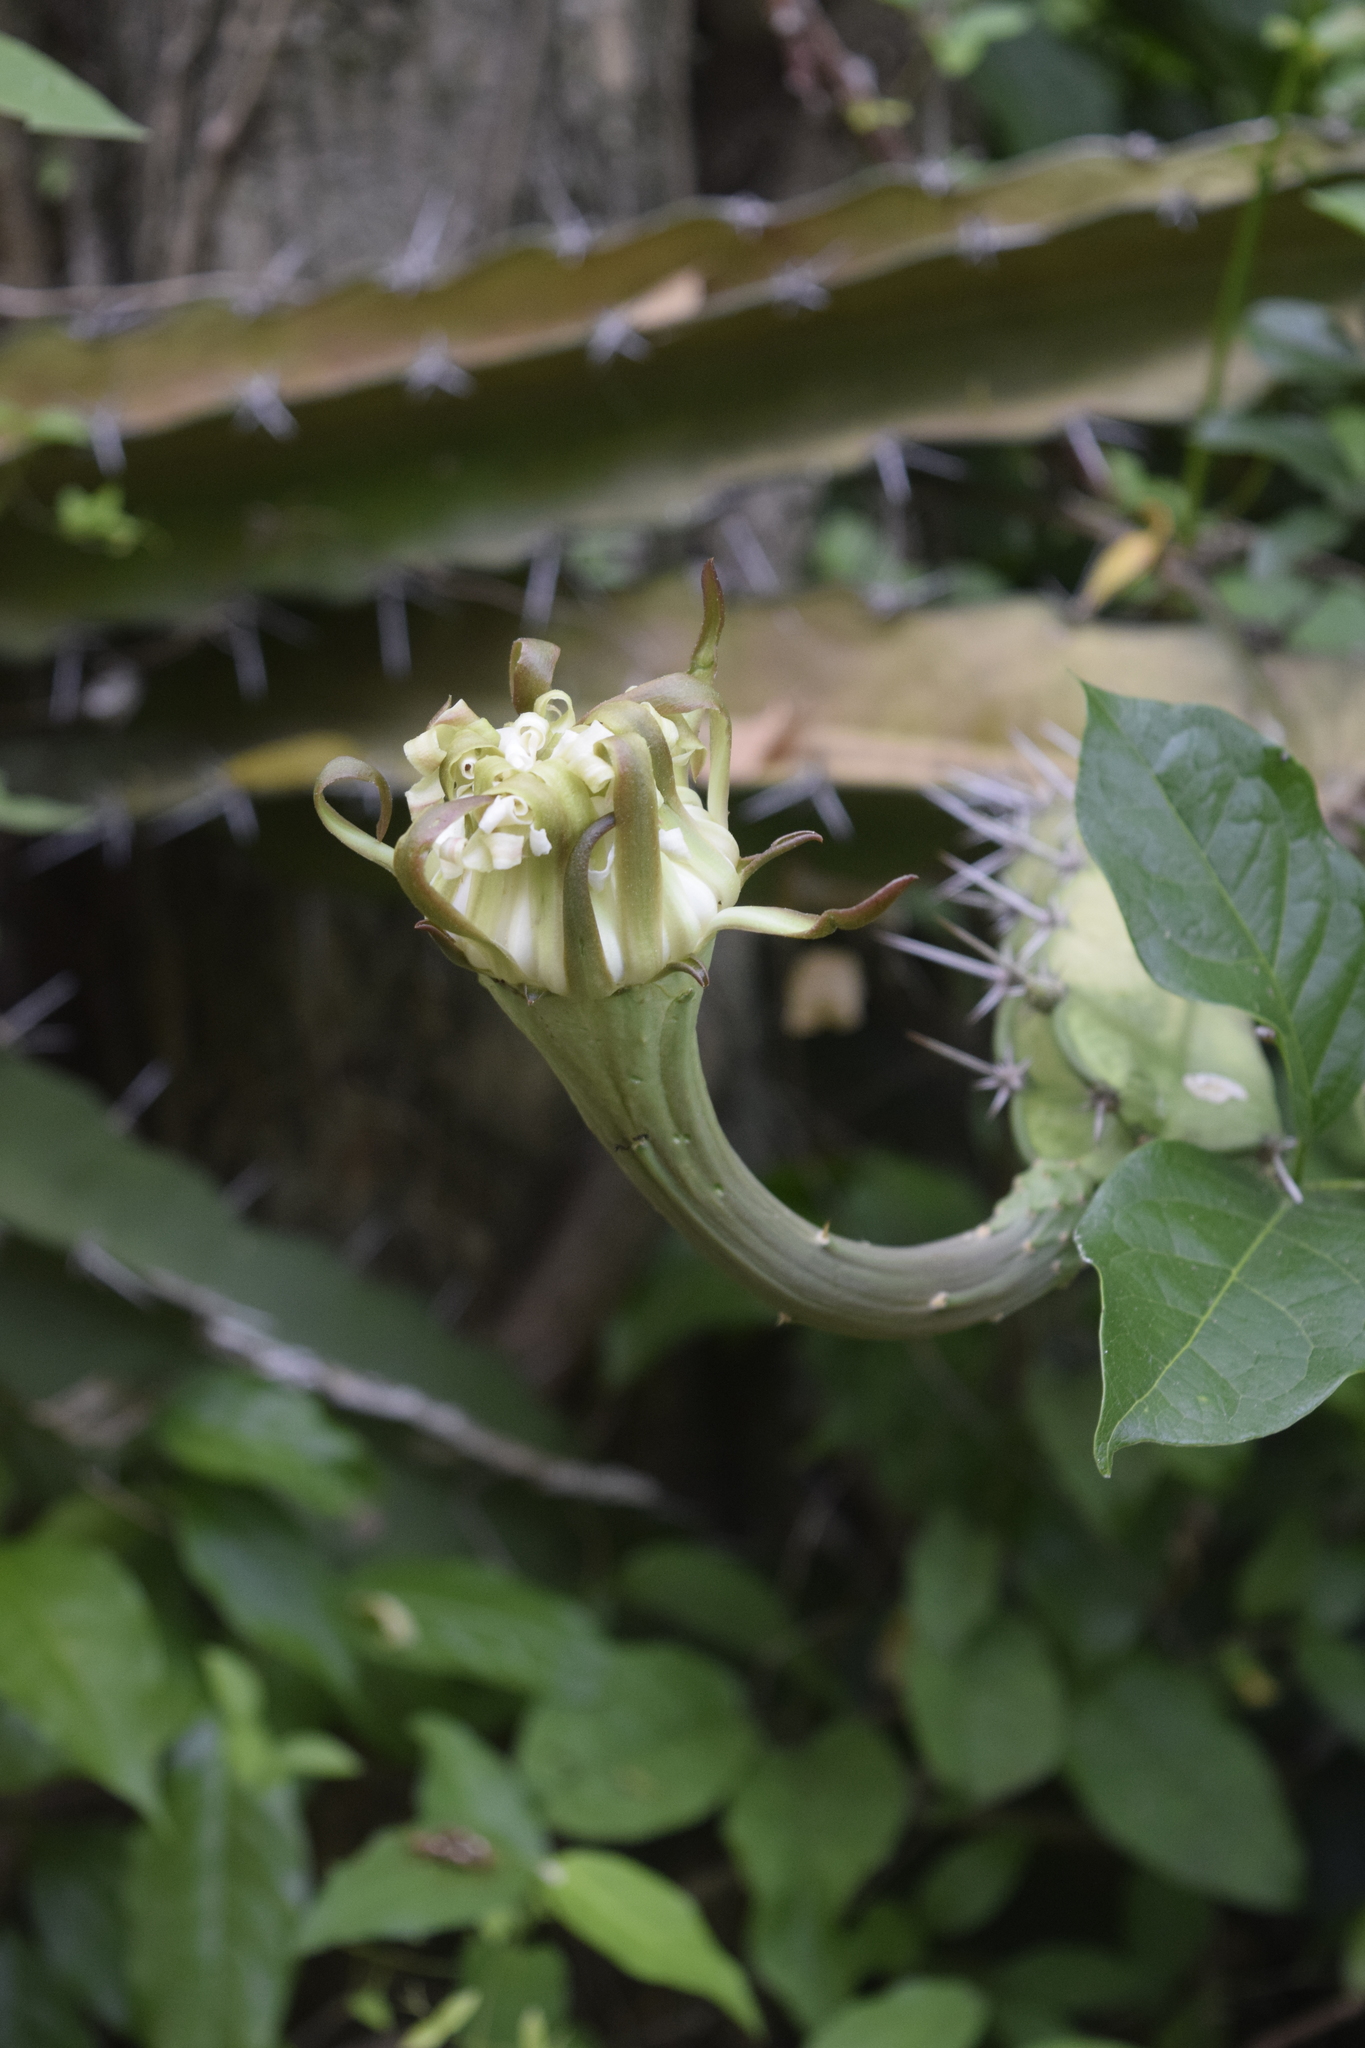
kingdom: Plantae
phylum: Tracheophyta
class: Magnoliopsida
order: Caryophyllales
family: Cactaceae
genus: Acanthocereus
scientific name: Acanthocereus tetragonus
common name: Triangle cactus
